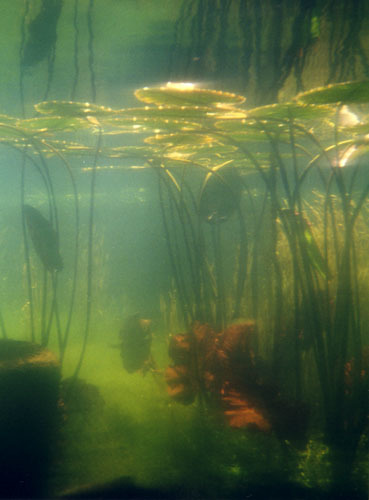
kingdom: Plantae
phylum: Tracheophyta
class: Magnoliopsida
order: Nymphaeales
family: Nymphaeaceae
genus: Nuphar
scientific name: Nuphar variegata
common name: Beaver-root
